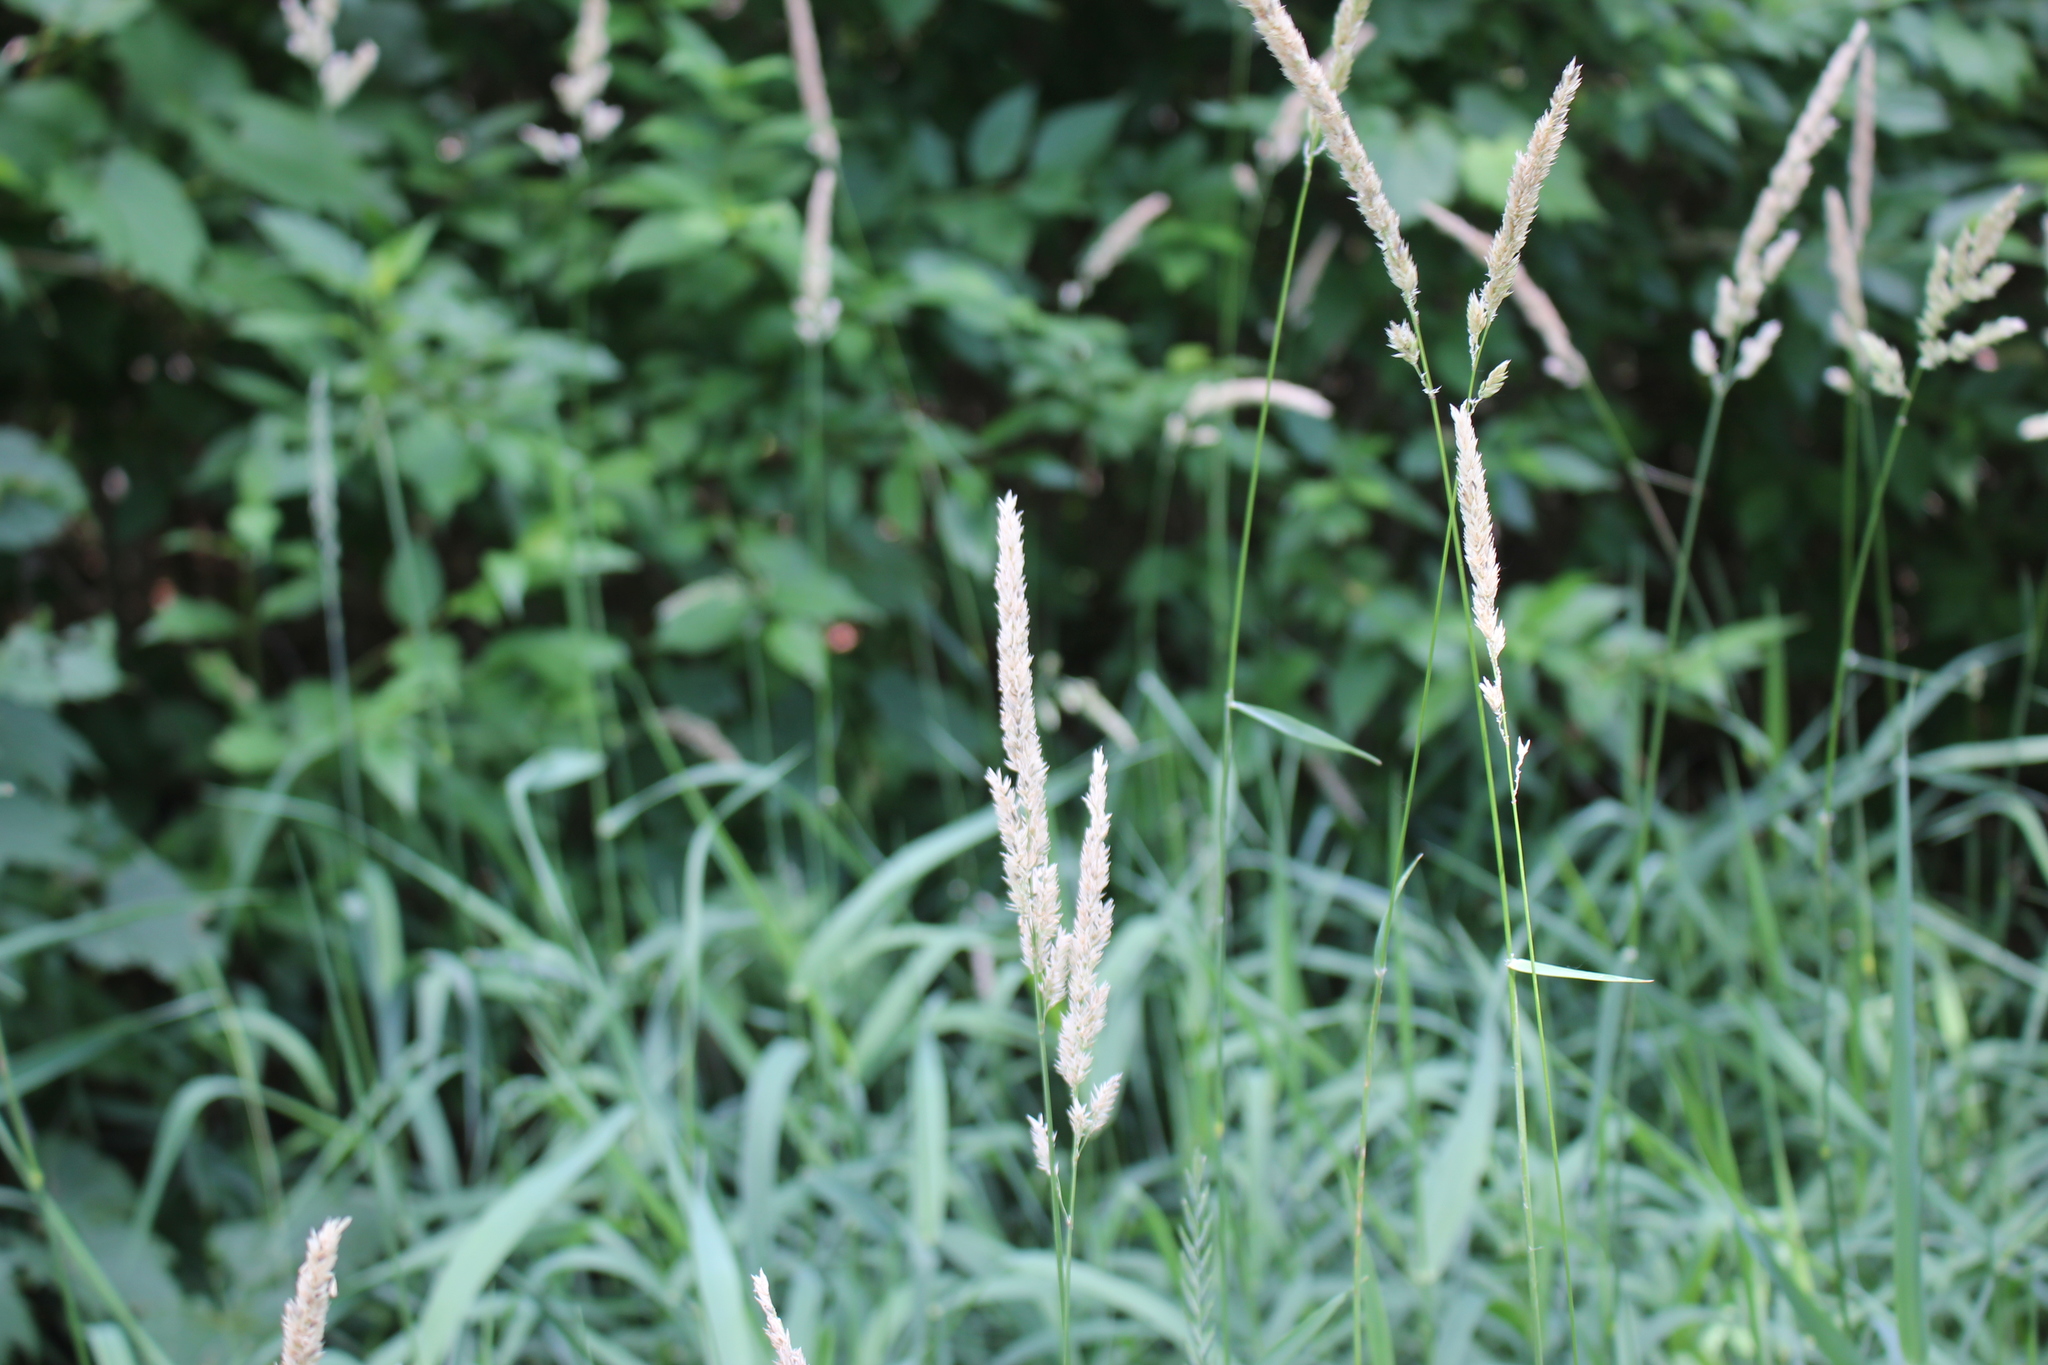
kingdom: Plantae
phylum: Tracheophyta
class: Liliopsida
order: Poales
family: Poaceae
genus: Phalaris
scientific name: Phalaris arundinacea
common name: Reed canary-grass
